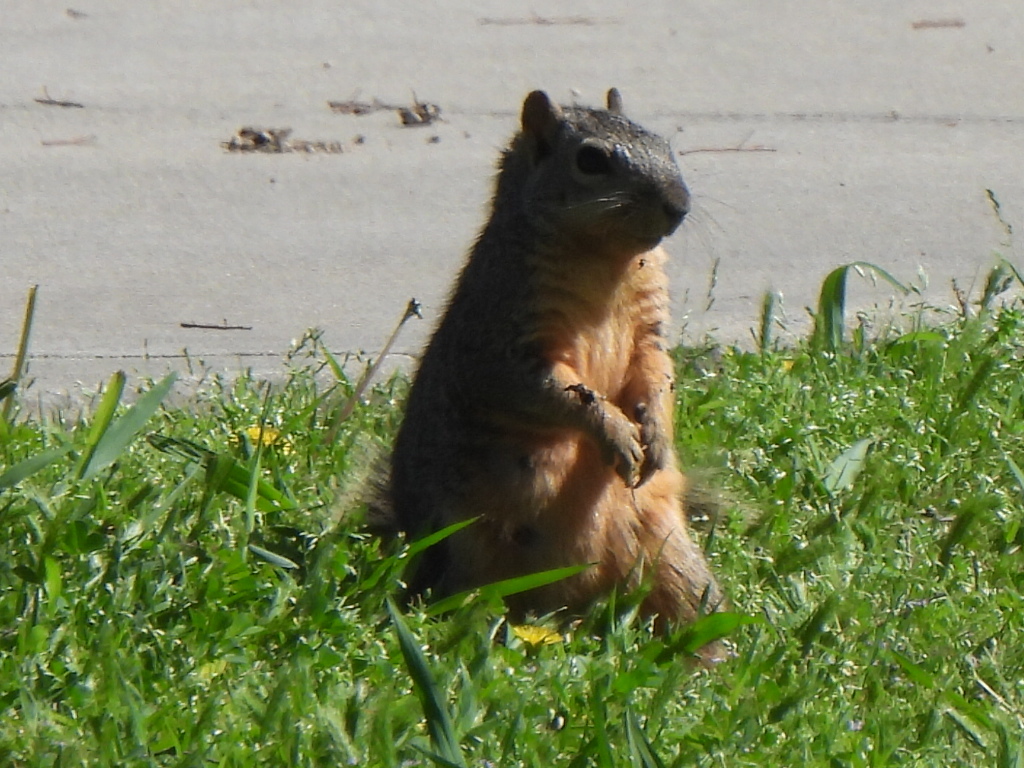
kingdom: Animalia
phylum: Chordata
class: Mammalia
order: Rodentia
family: Sciuridae
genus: Sciurus
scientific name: Sciurus niger
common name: Fox squirrel
